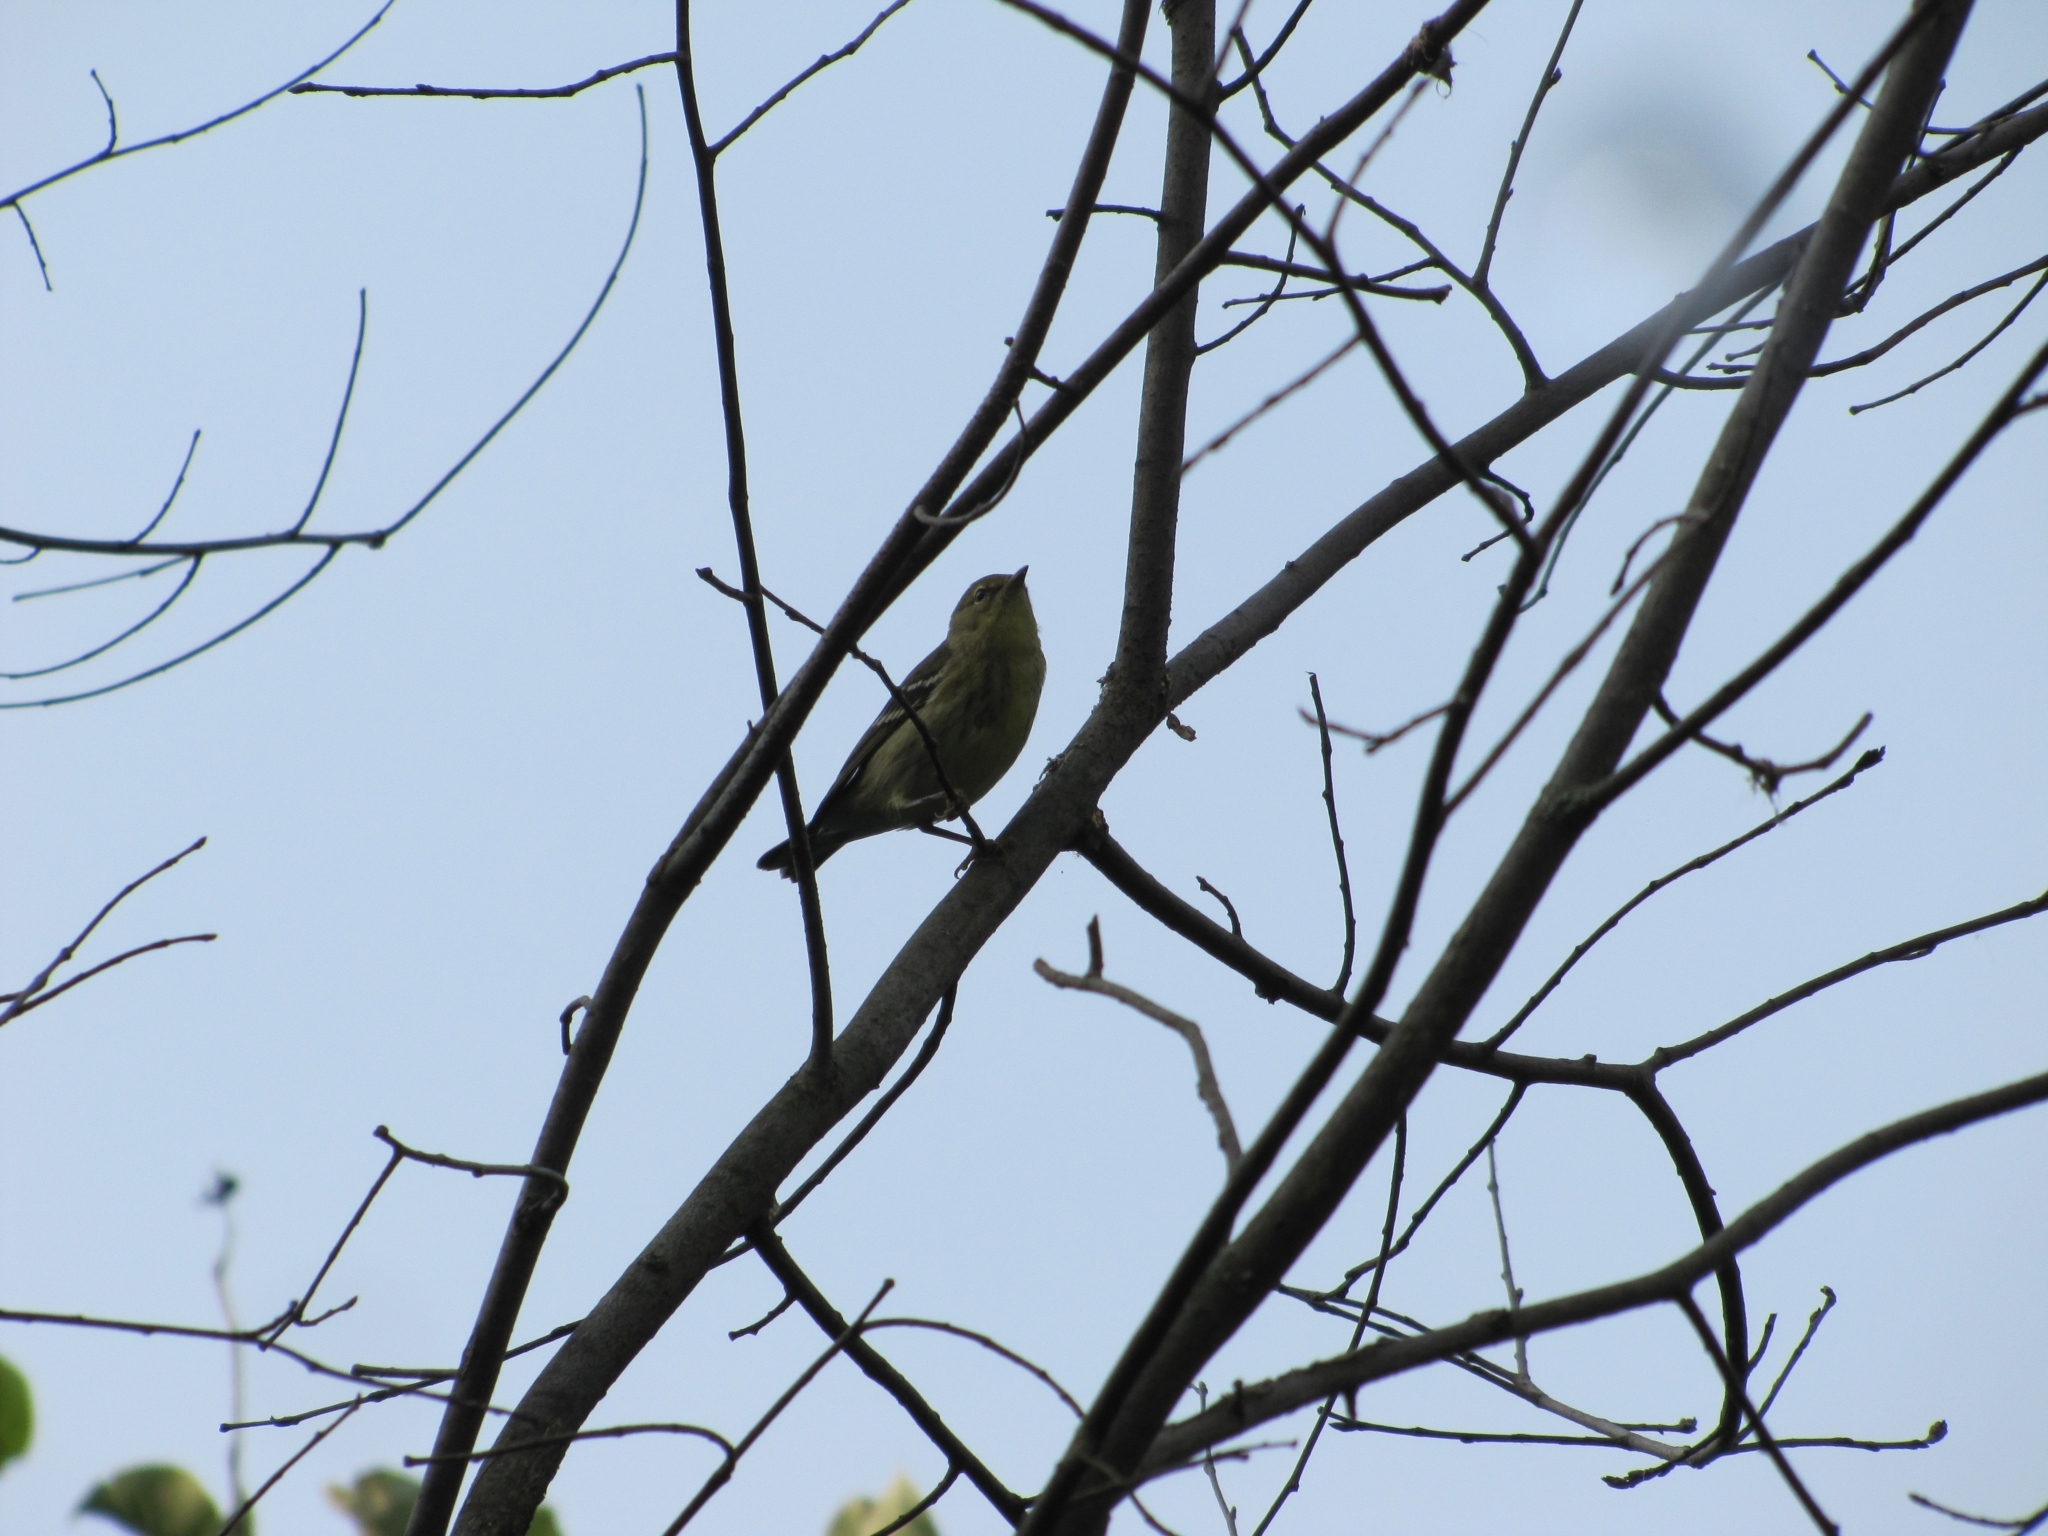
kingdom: Animalia
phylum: Chordata
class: Aves
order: Passeriformes
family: Parulidae
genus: Setophaga
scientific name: Setophaga striata
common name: Blackpoll warbler
